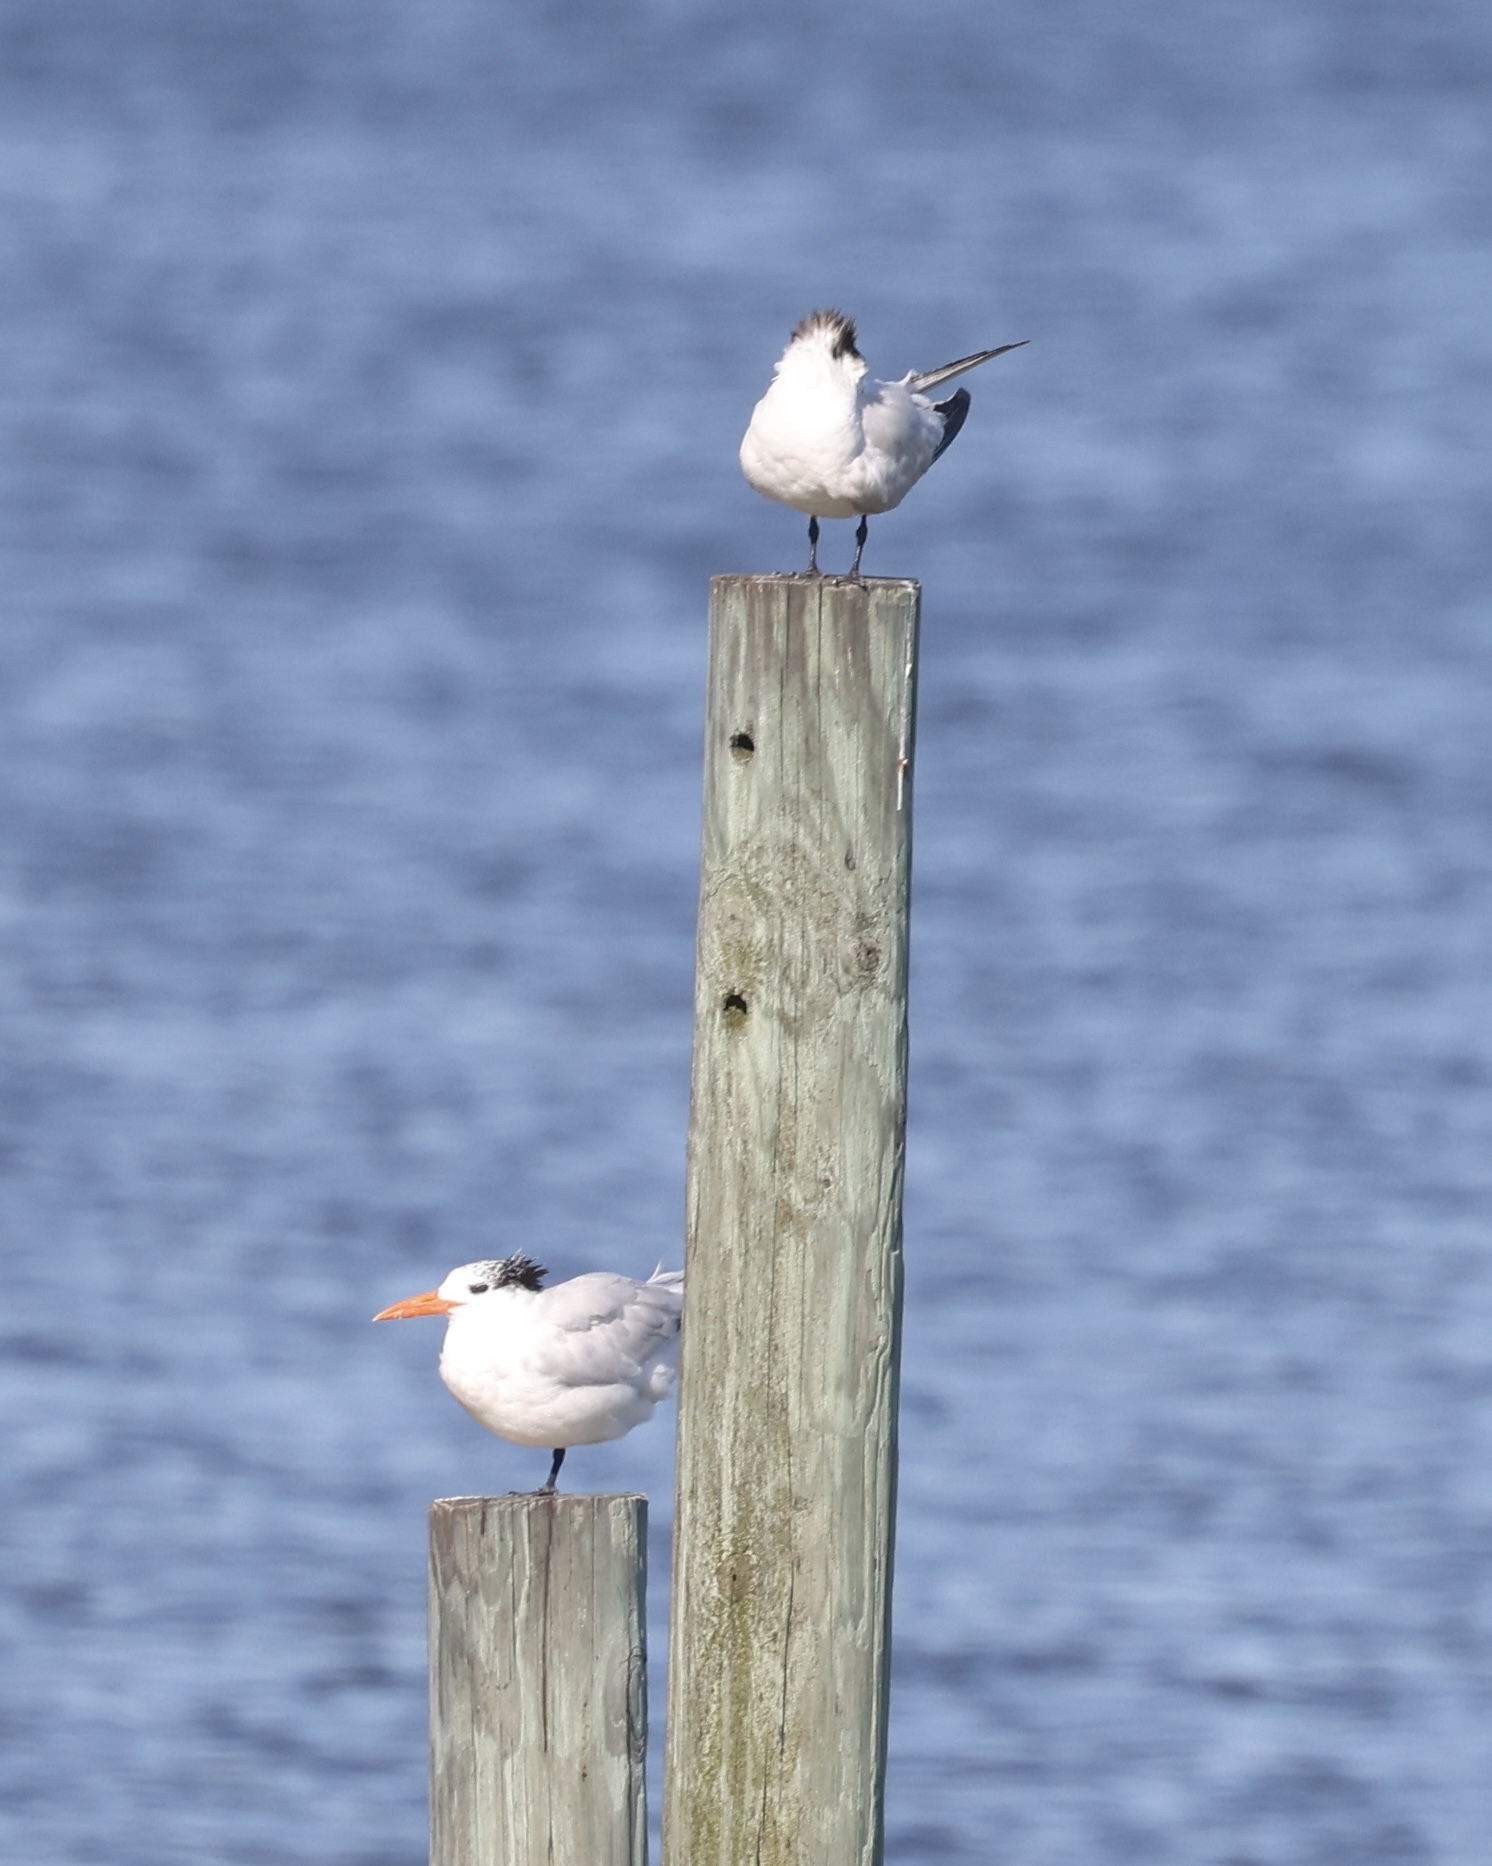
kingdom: Animalia
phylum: Chordata
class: Aves
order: Charadriiformes
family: Laridae
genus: Thalasseus
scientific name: Thalasseus maximus
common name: Royal tern
